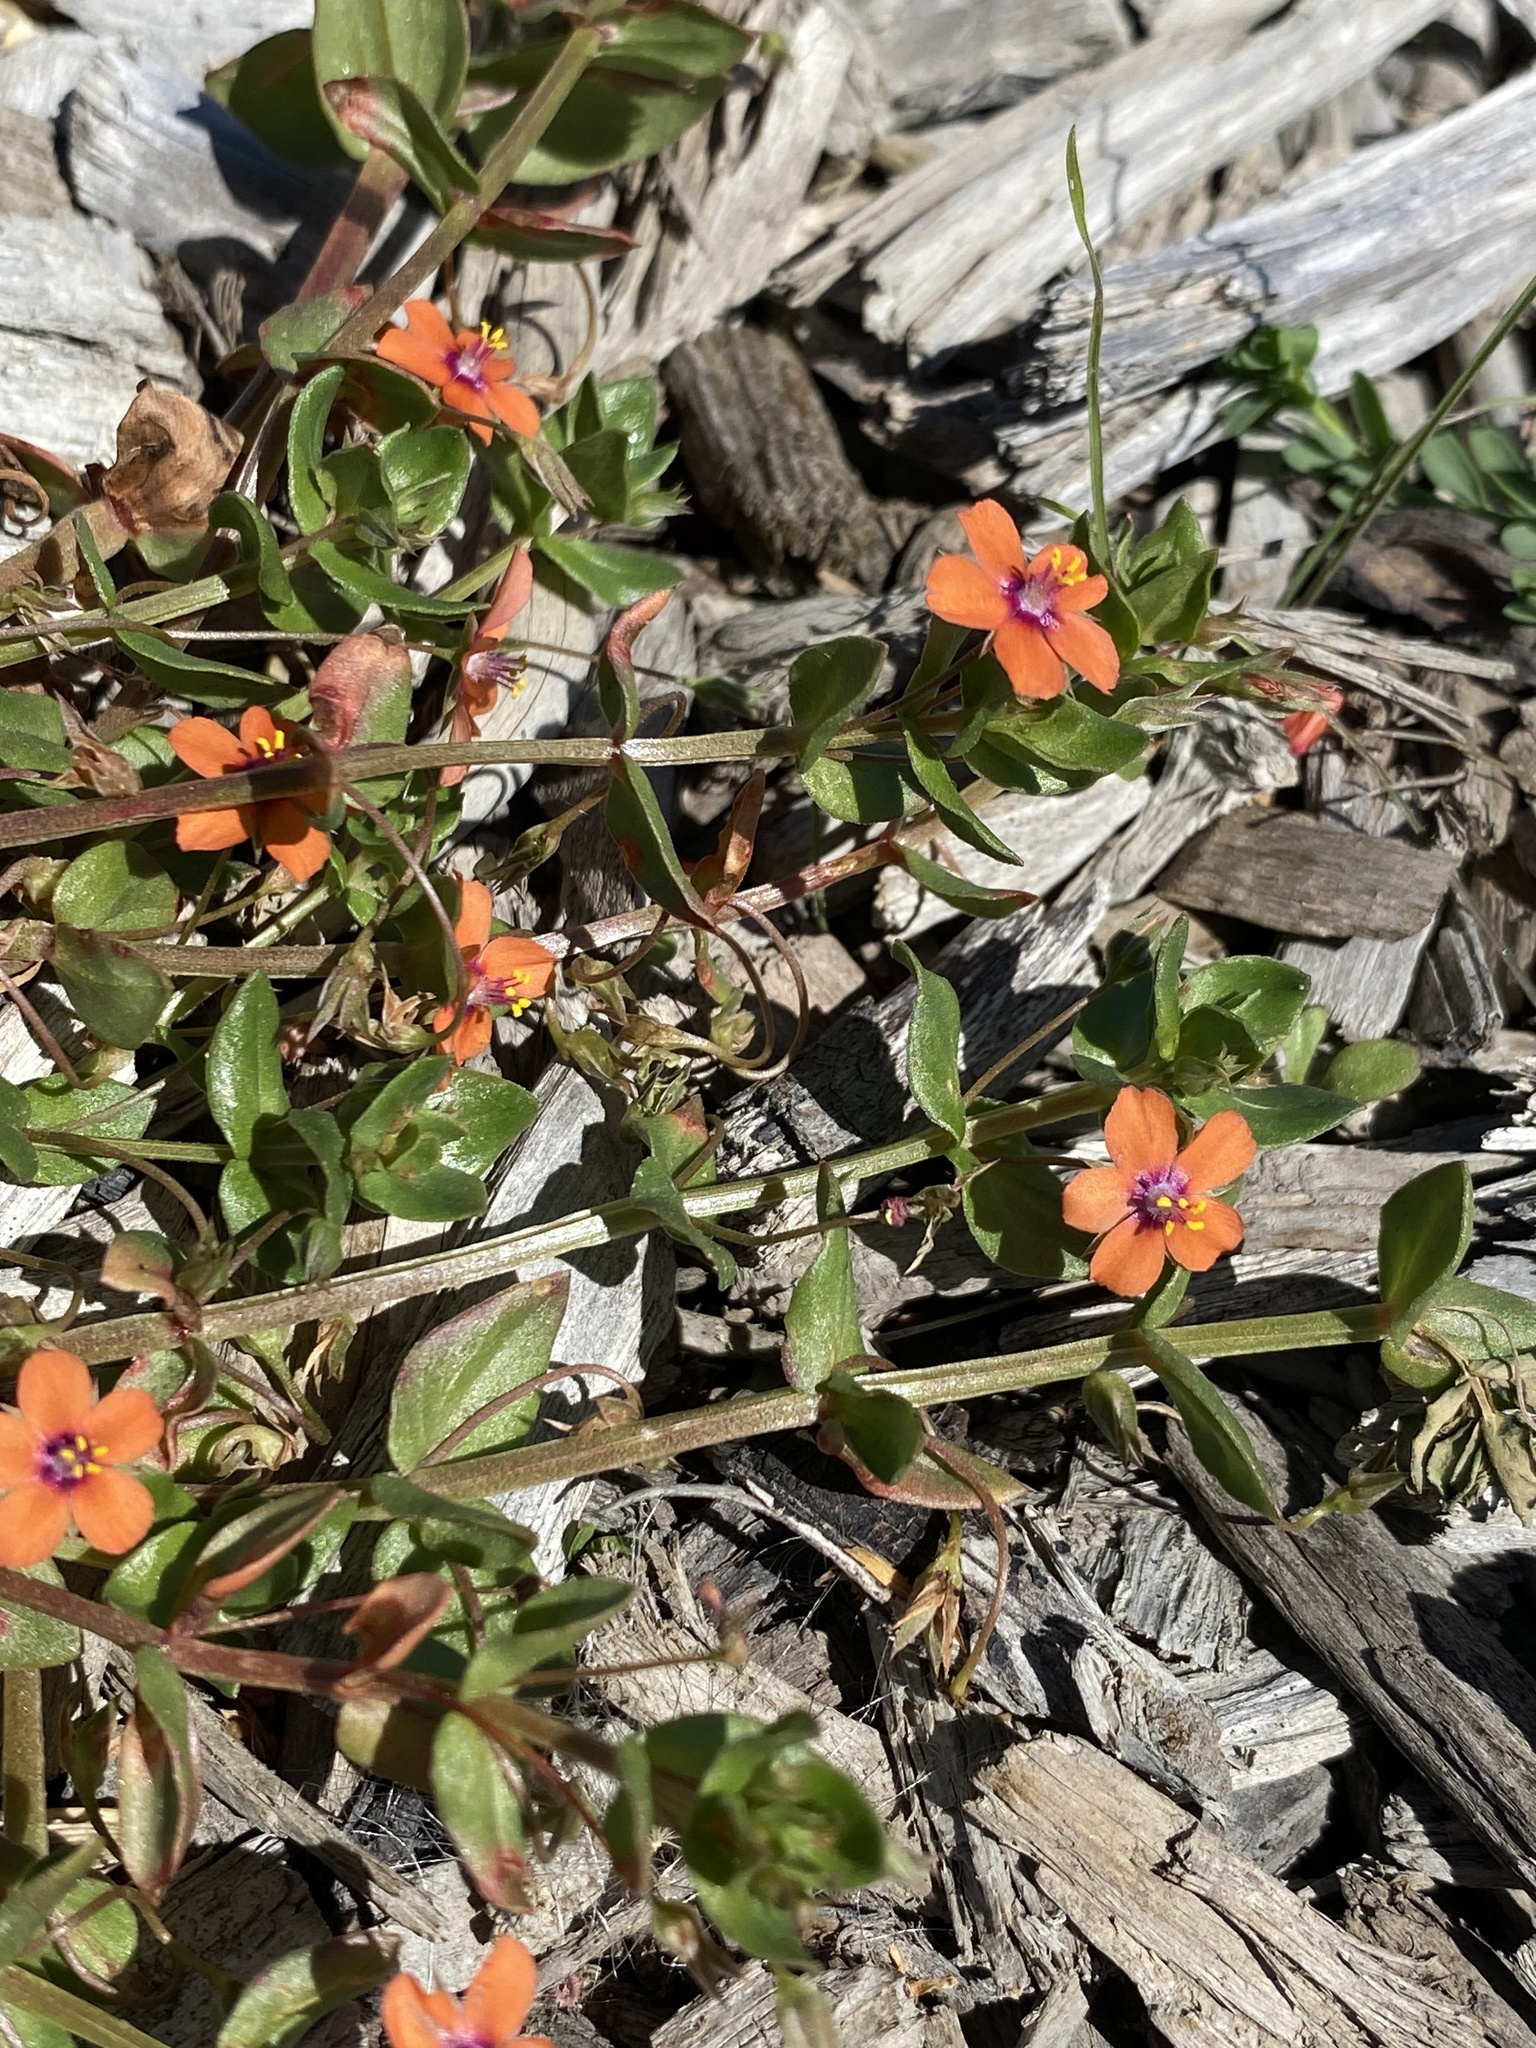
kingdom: Plantae
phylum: Tracheophyta
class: Magnoliopsida
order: Ericales
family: Primulaceae
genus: Lysimachia
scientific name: Lysimachia arvensis
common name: Scarlet pimpernel
